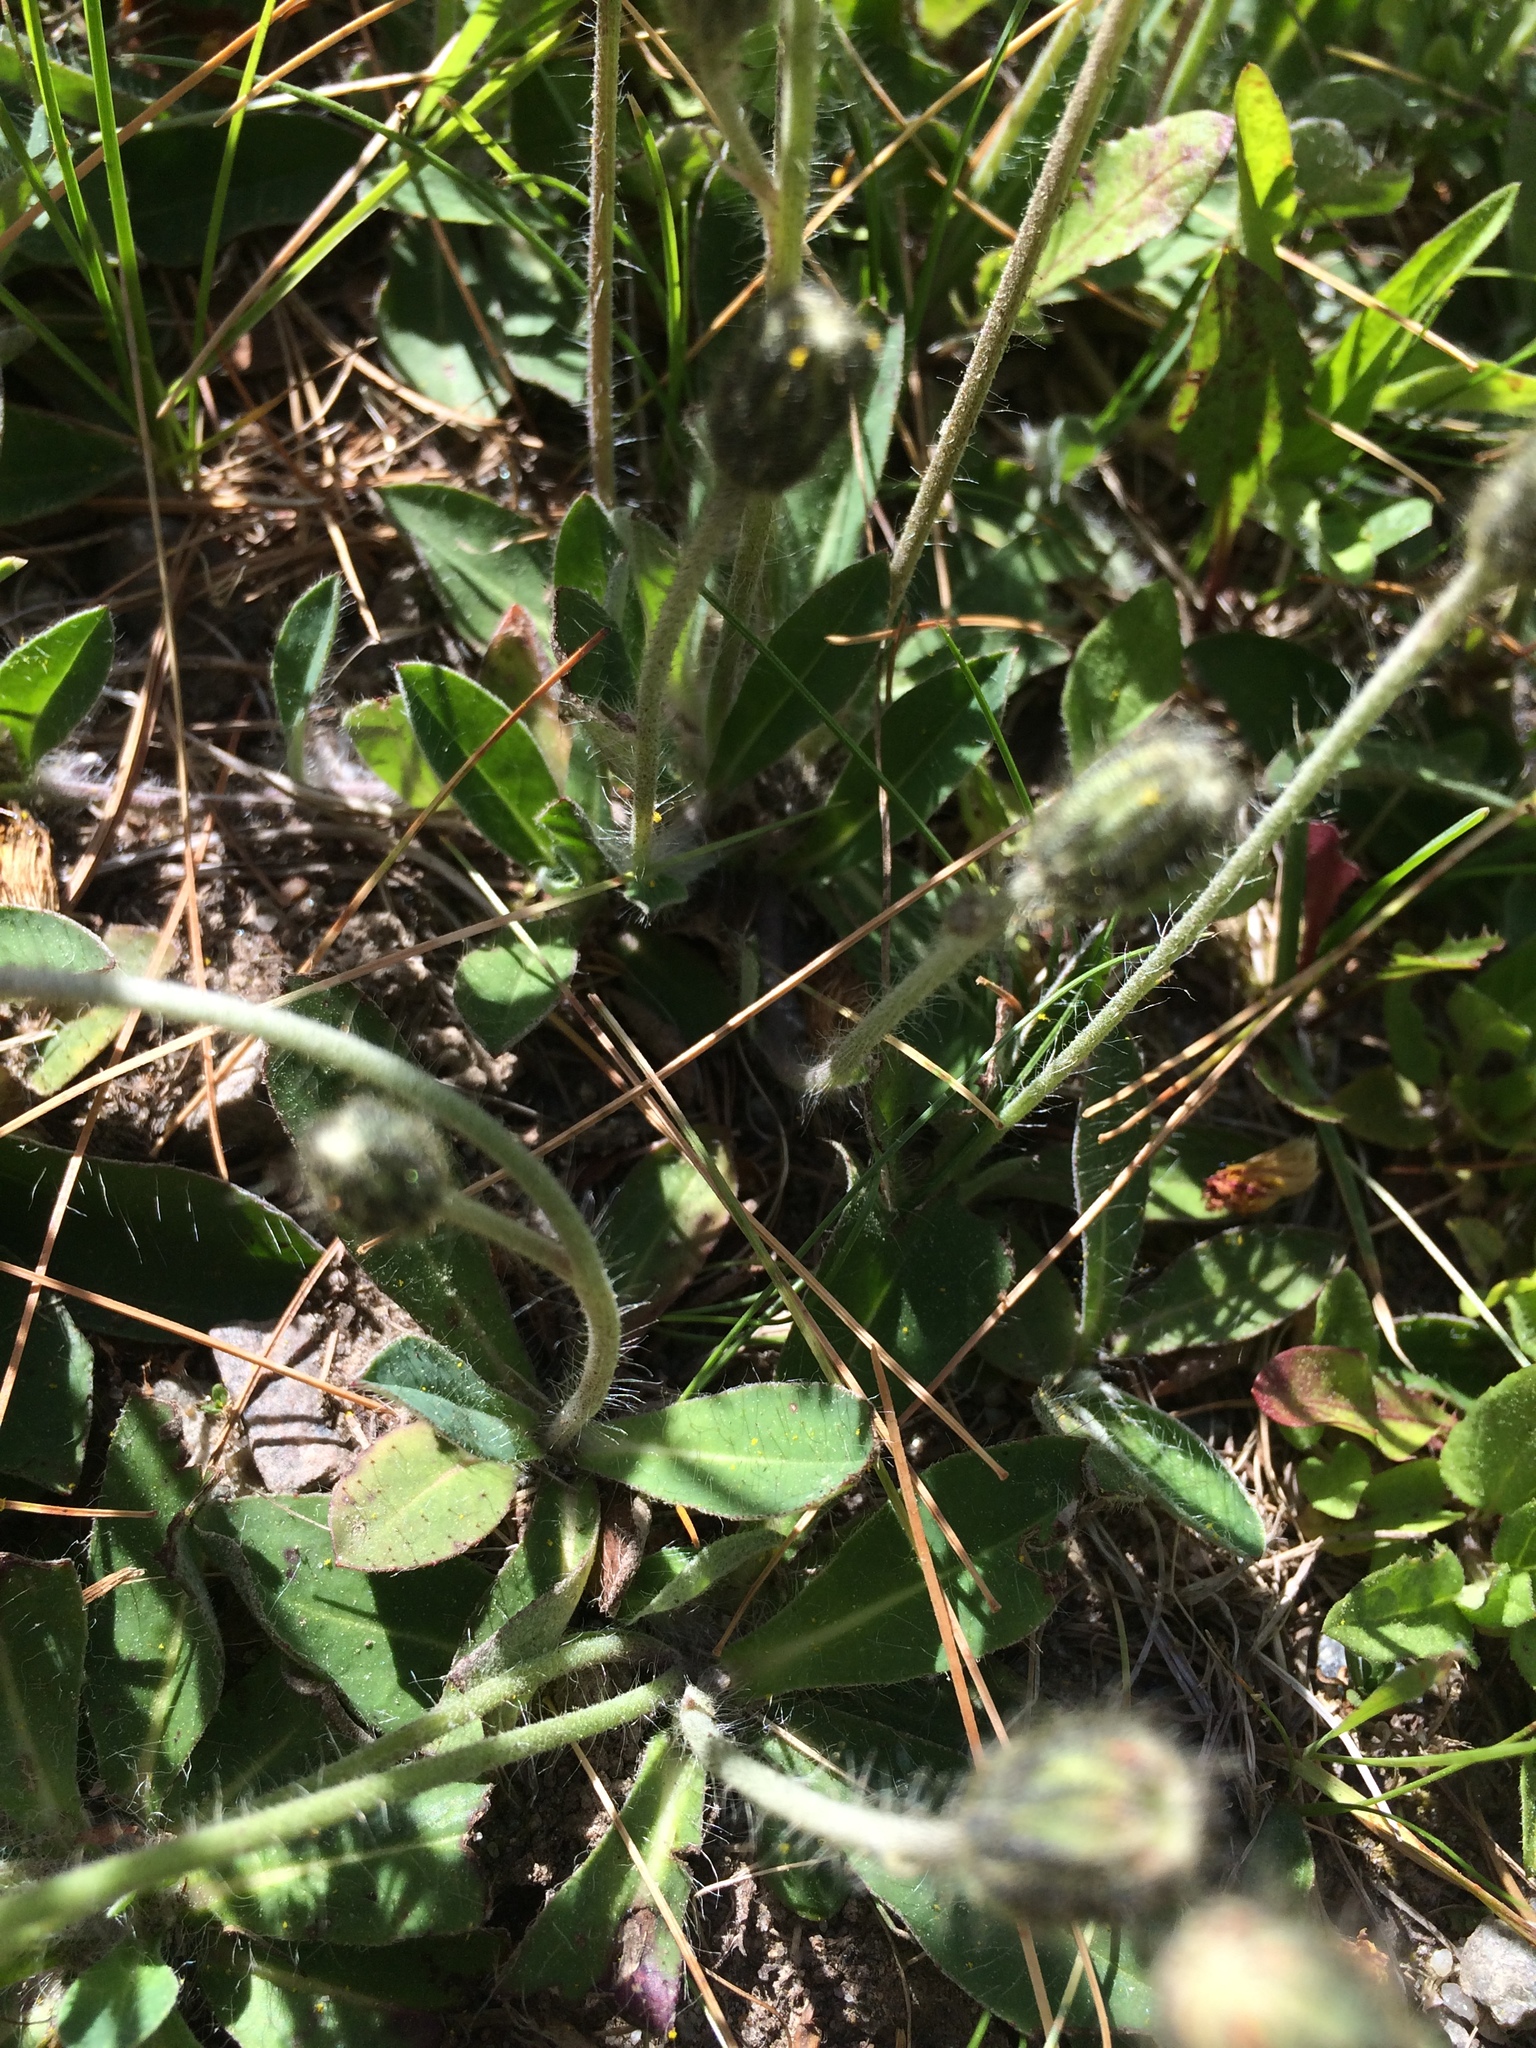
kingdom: Plantae
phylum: Tracheophyta
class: Magnoliopsida
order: Asterales
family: Asteraceae
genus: Pilosella
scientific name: Pilosella officinarum
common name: Mouse-ear hawkweed
